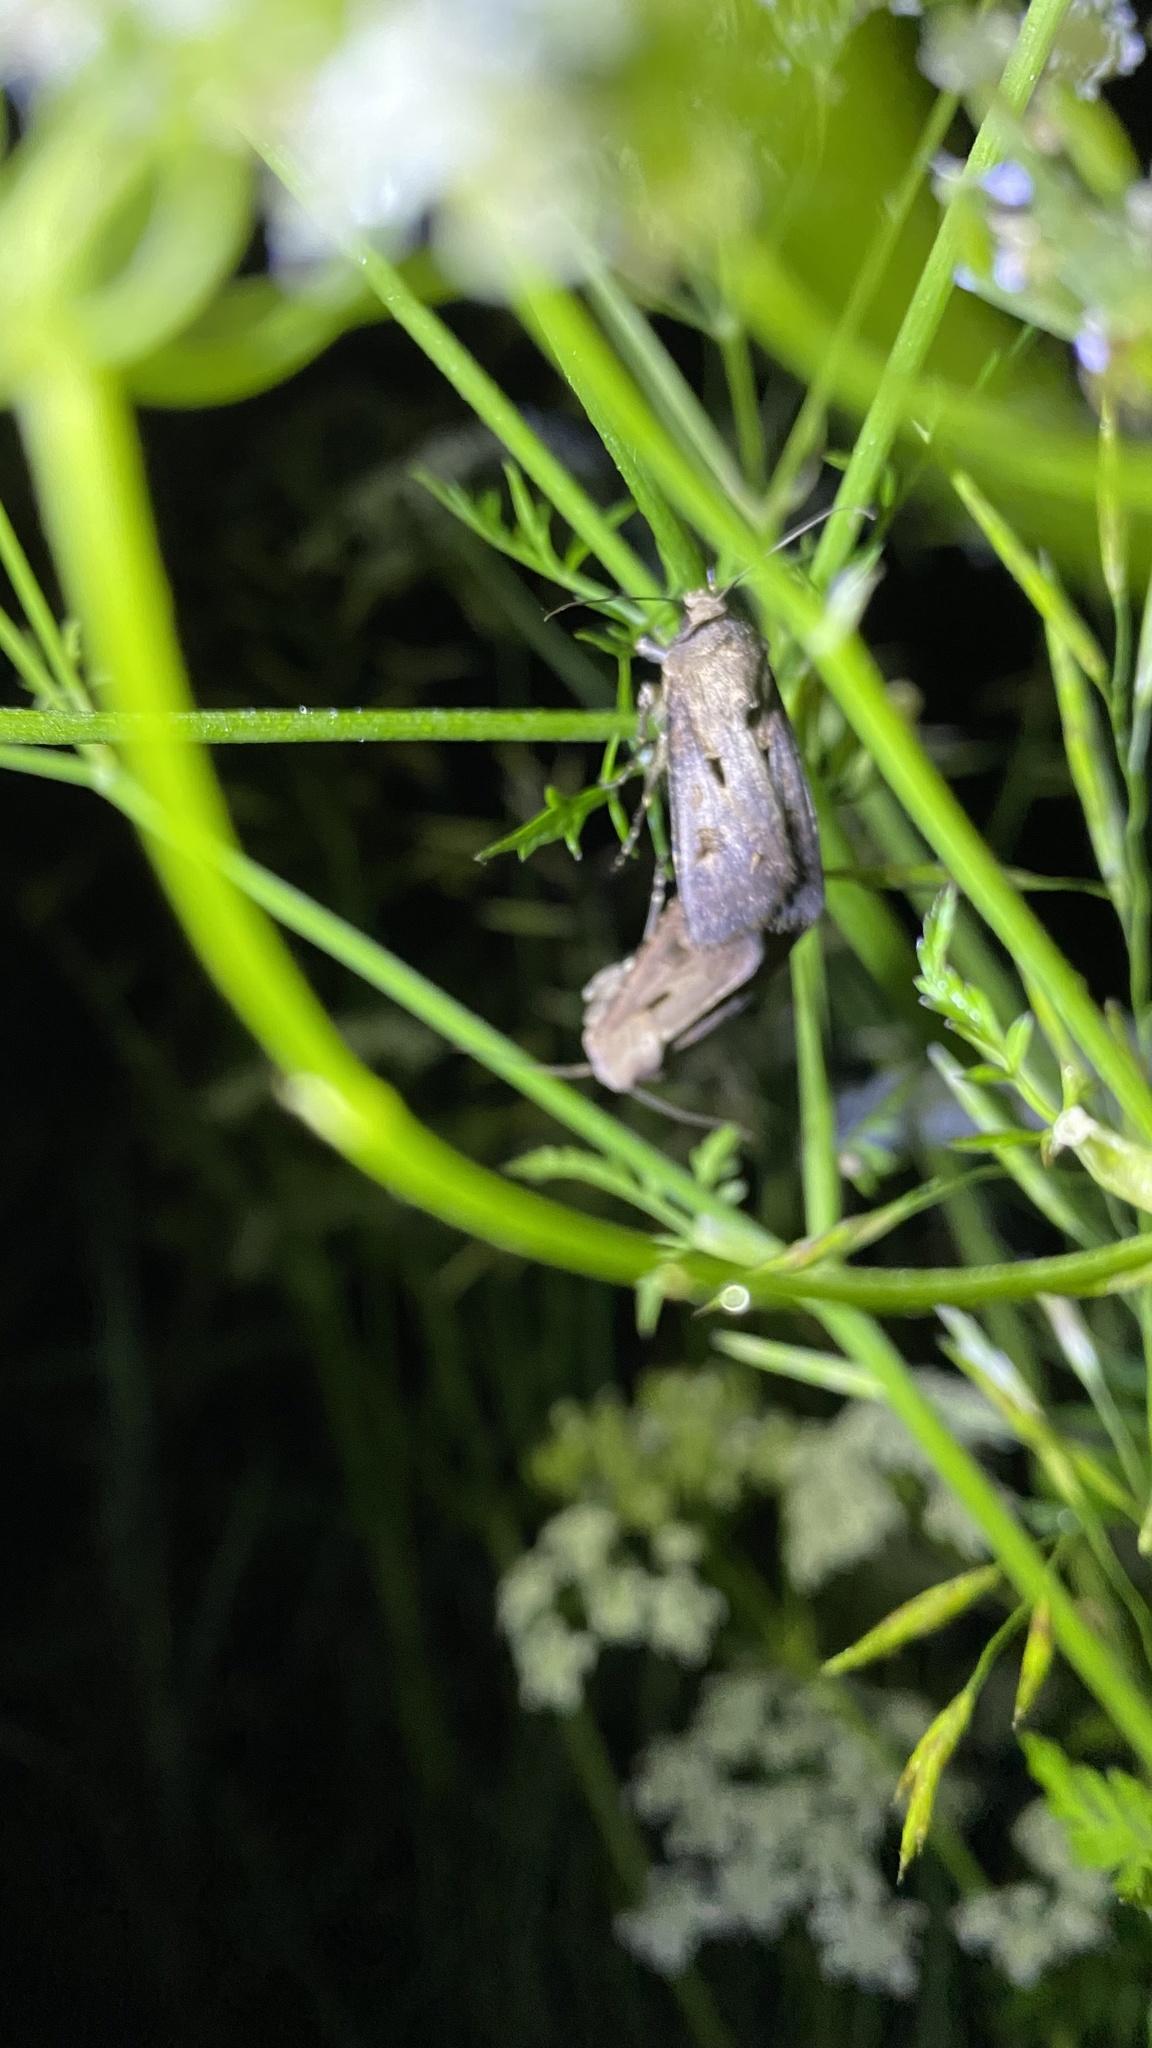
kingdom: Animalia
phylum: Arthropoda
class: Insecta
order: Lepidoptera
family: Noctuidae
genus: Agrotis
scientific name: Agrotis exclamationis
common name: Heart and dart
